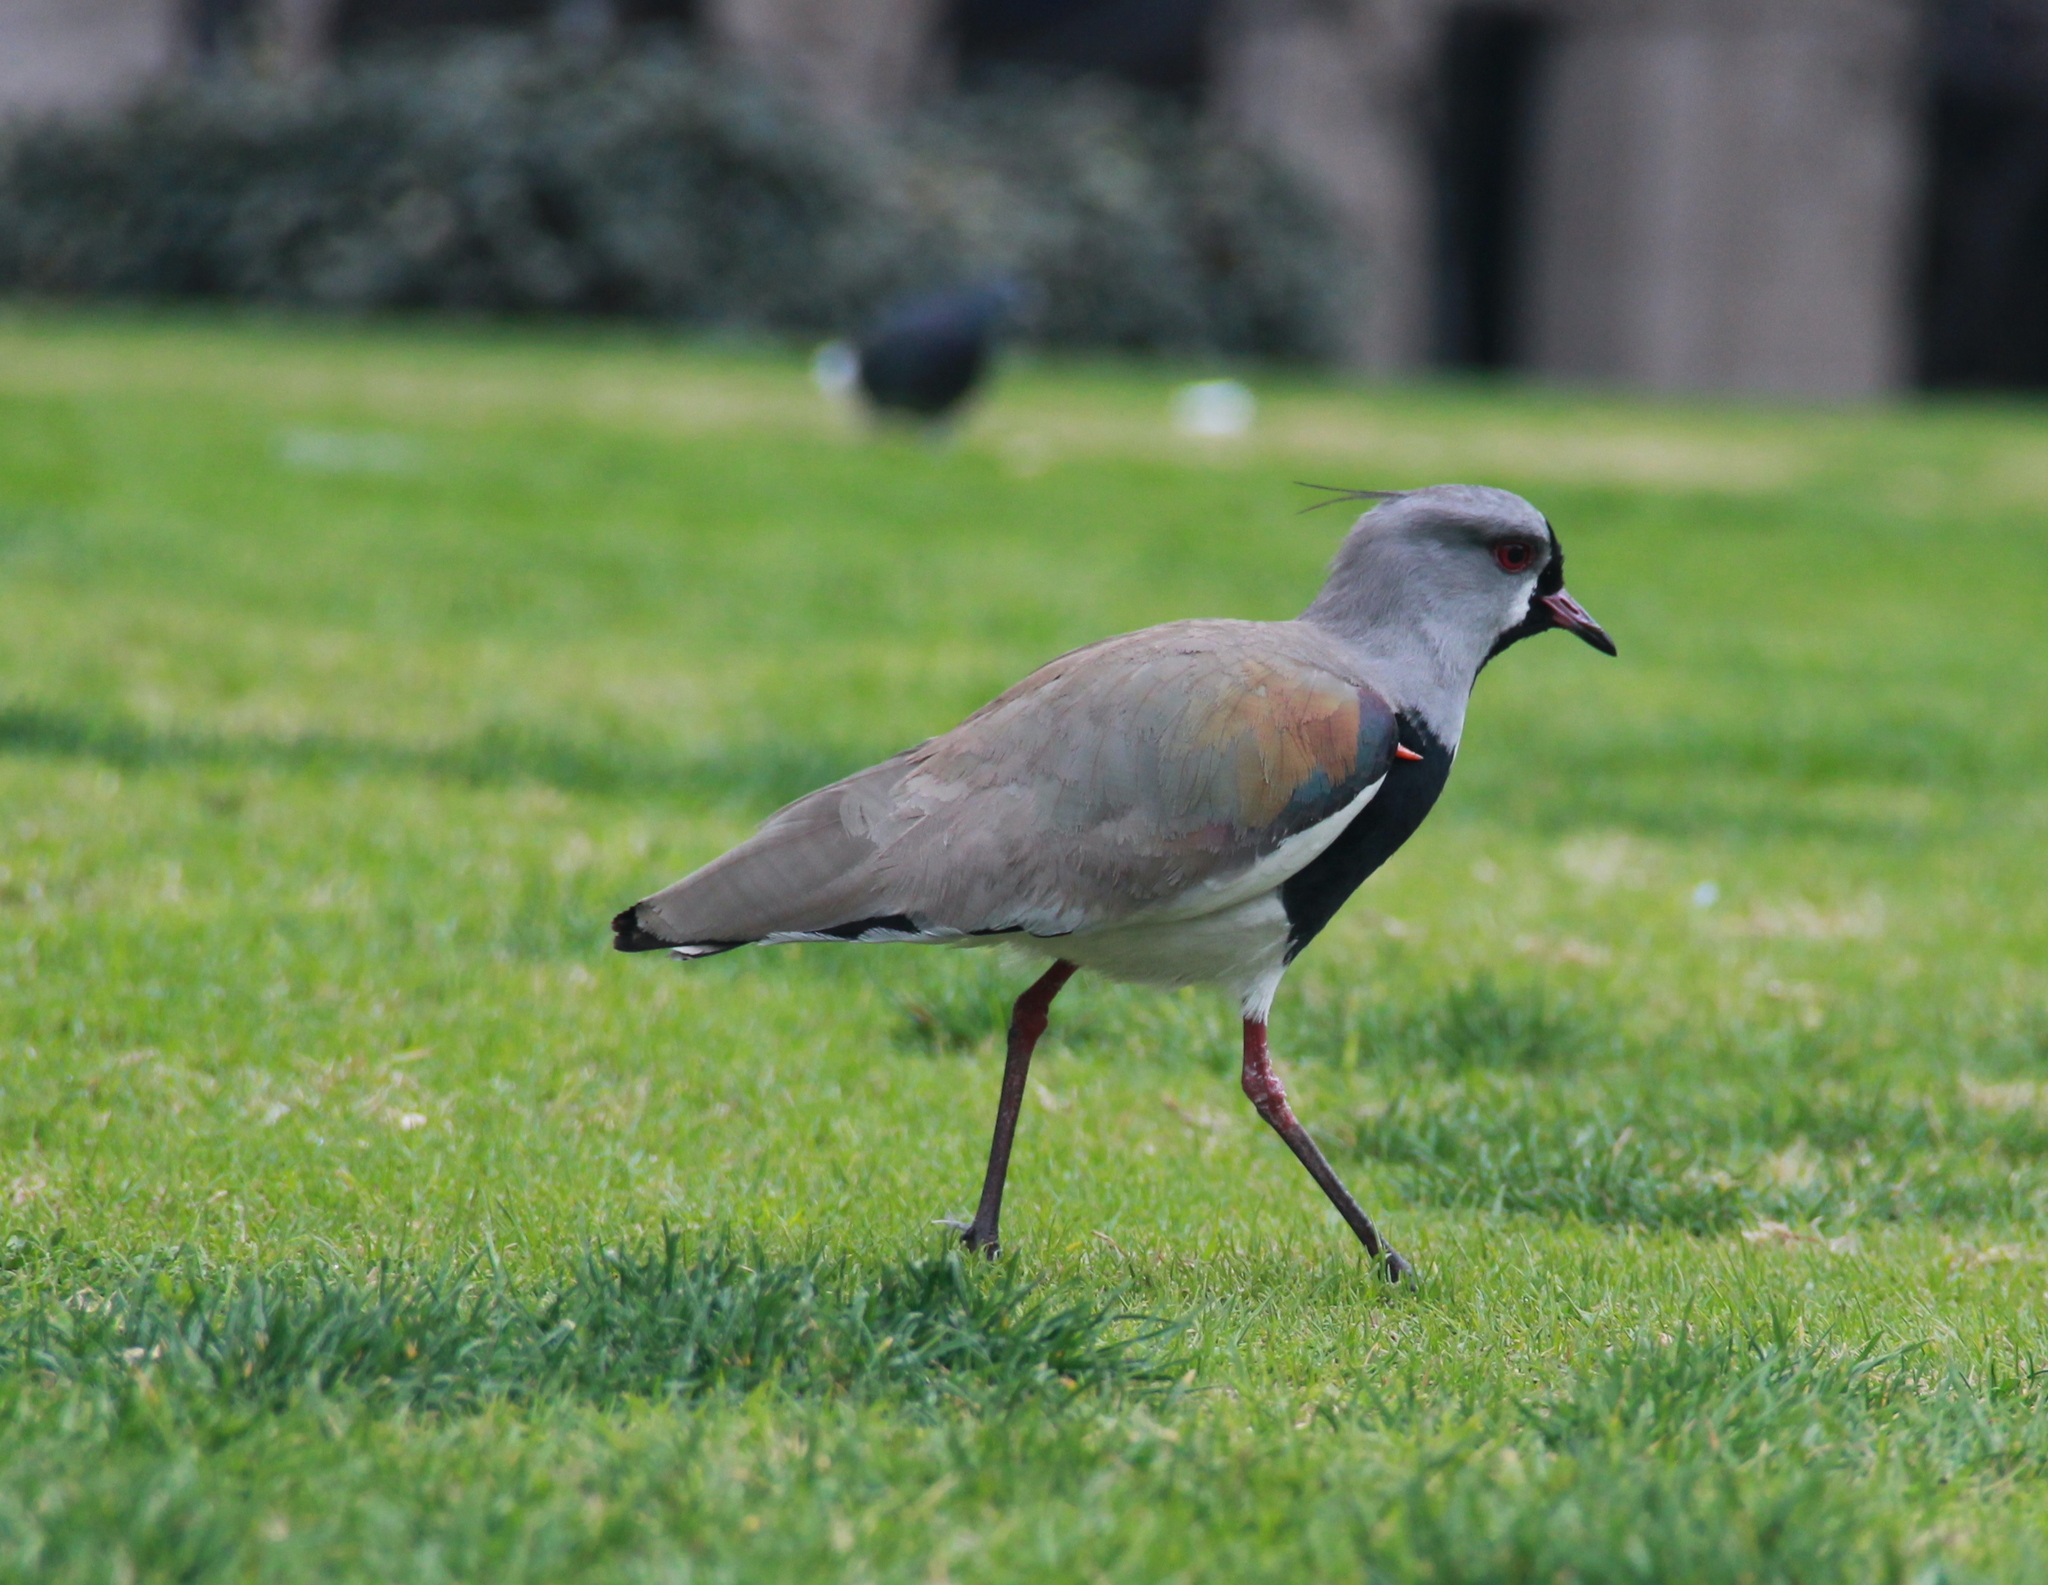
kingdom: Animalia
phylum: Chordata
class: Aves
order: Charadriiformes
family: Charadriidae
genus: Vanellus
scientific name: Vanellus chilensis
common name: Southern lapwing
